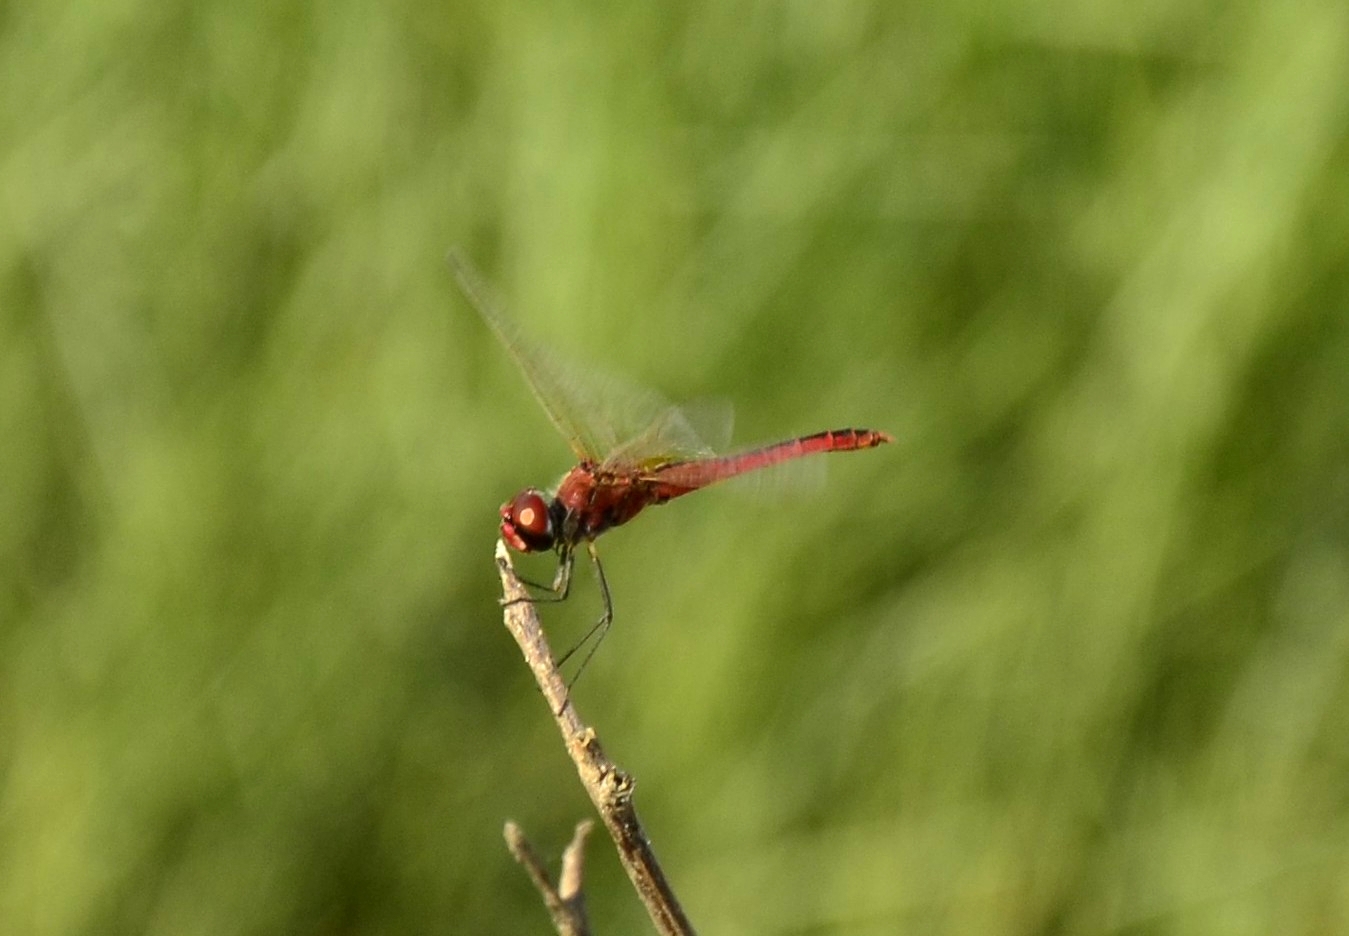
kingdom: Animalia
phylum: Arthropoda
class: Insecta
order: Odonata
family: Libellulidae
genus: Macrodiplax
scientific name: Macrodiplax cora
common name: Coastal glider
